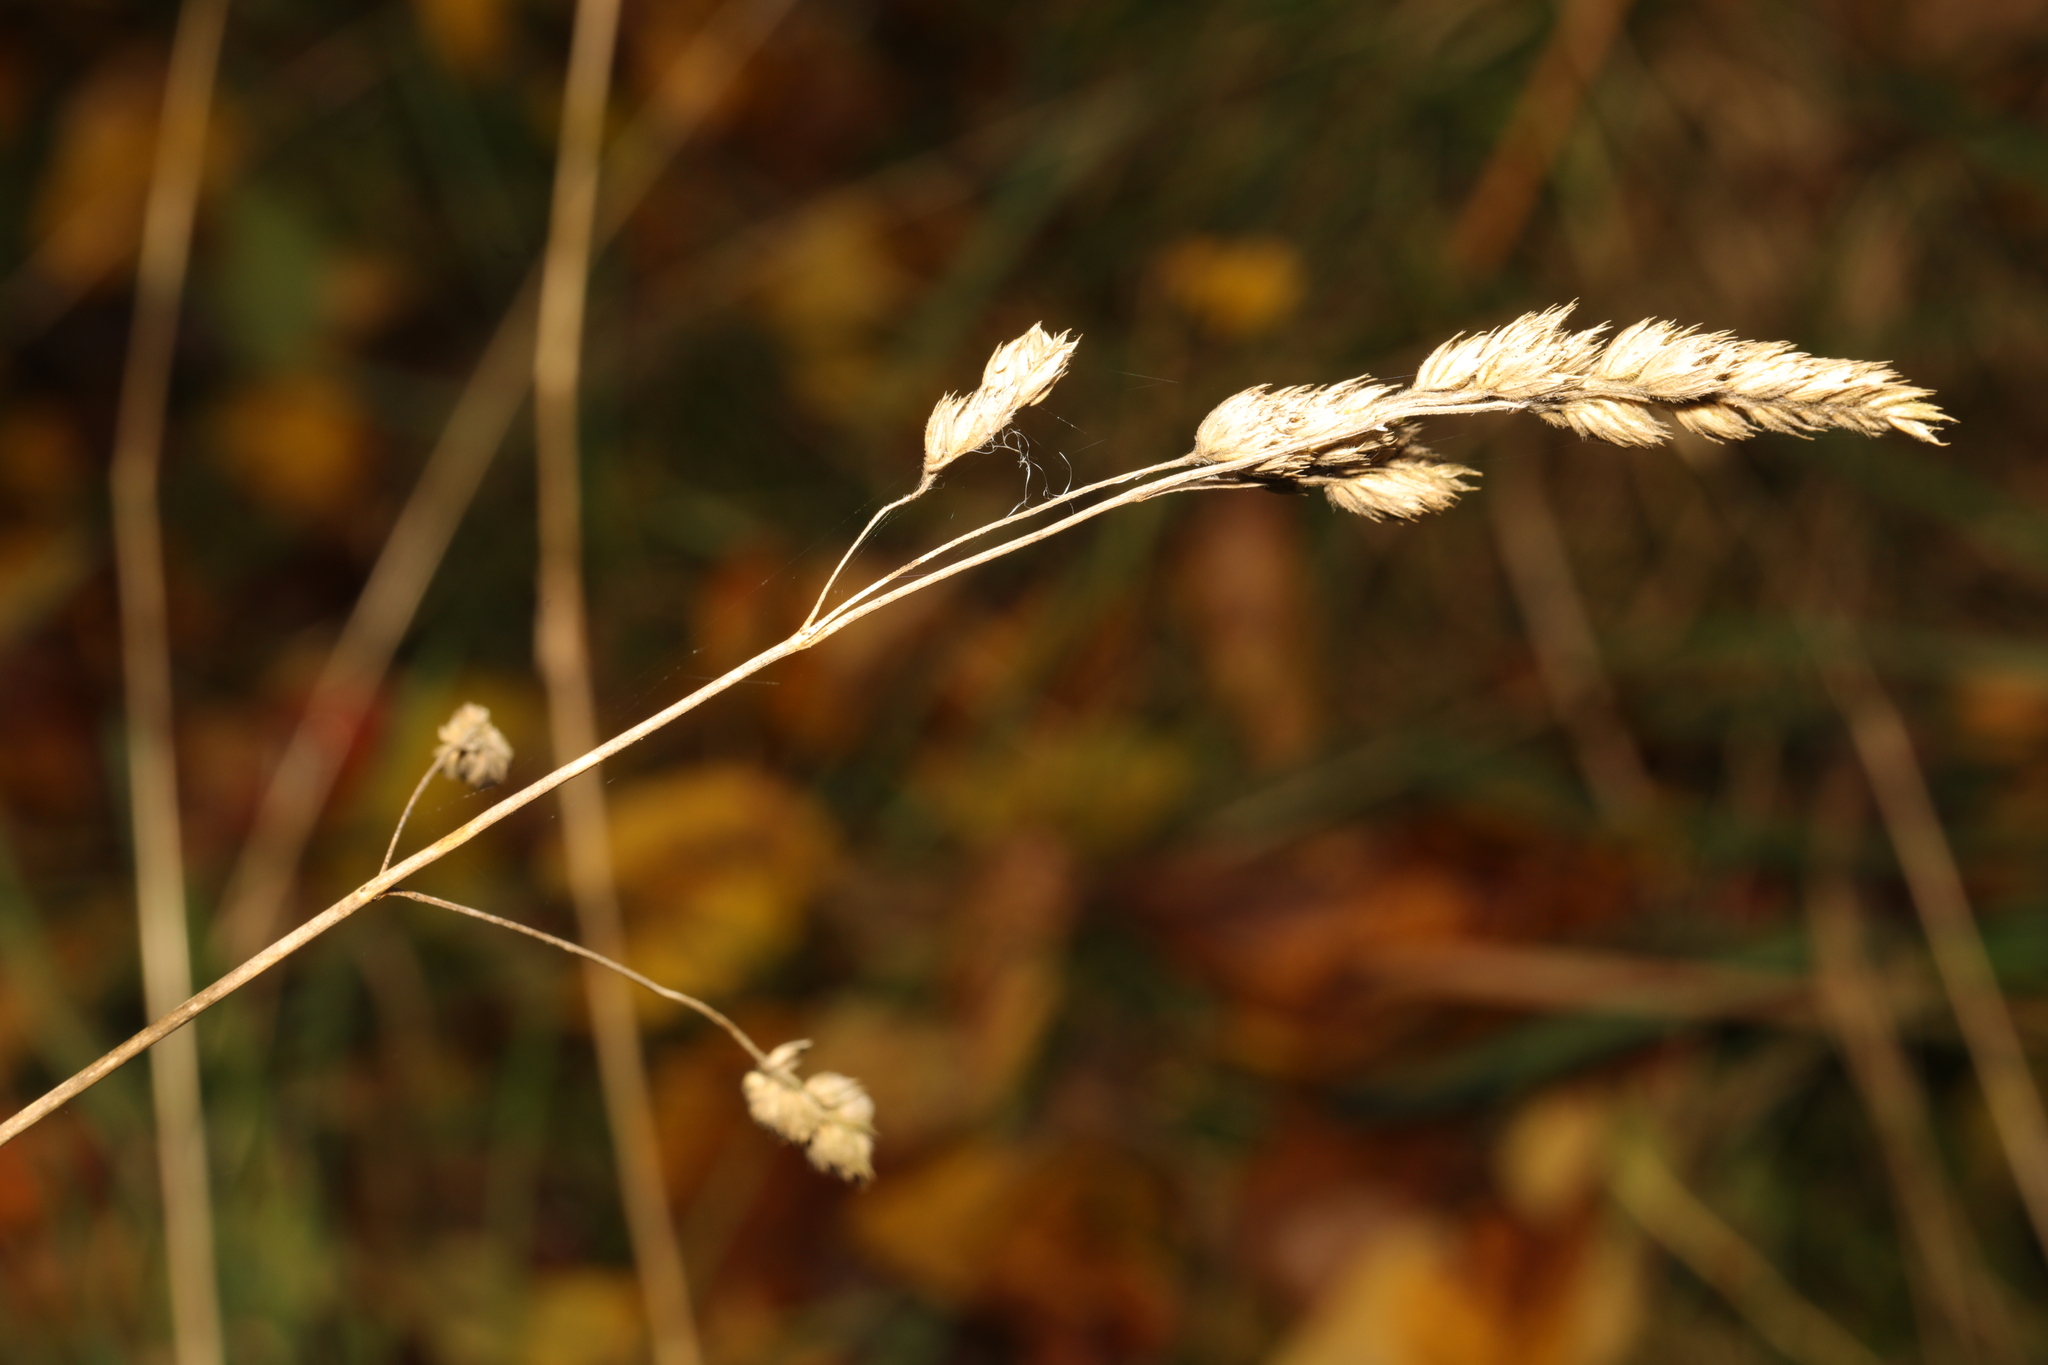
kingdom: Plantae
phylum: Tracheophyta
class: Liliopsida
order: Poales
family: Poaceae
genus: Dactylis
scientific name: Dactylis glomerata
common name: Orchardgrass
